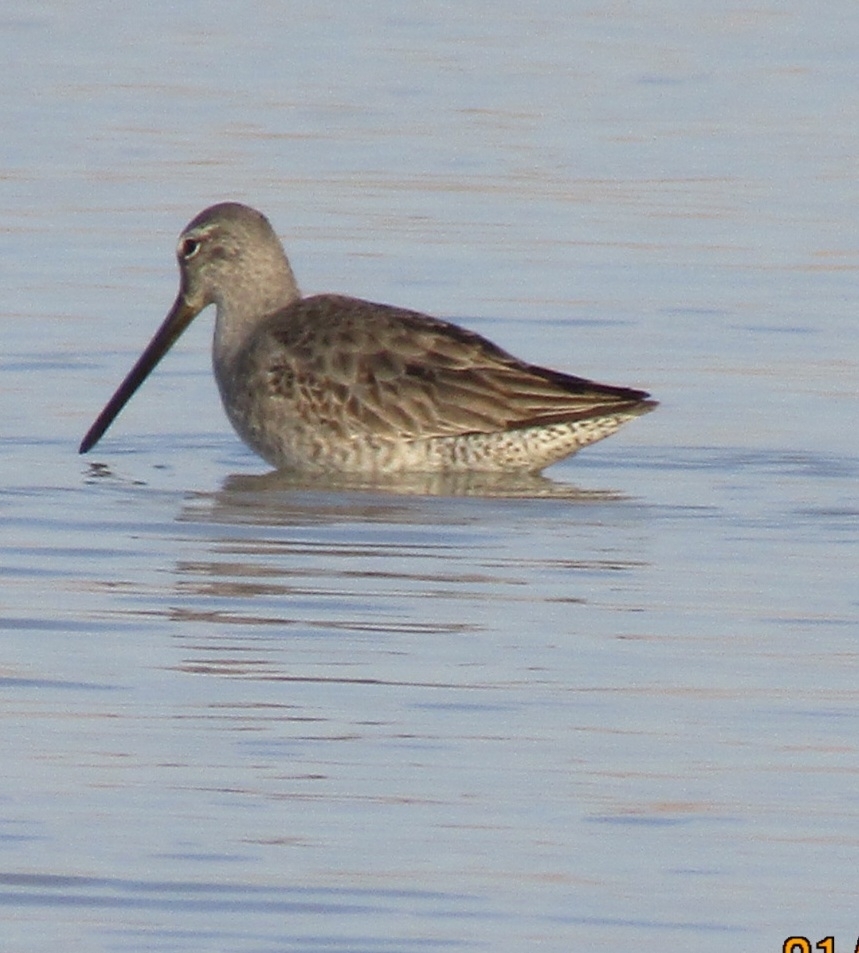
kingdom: Animalia
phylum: Chordata
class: Aves
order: Charadriiformes
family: Scolopacidae
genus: Limnodromus
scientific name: Limnodromus scolopaceus
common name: Long-billed dowitcher
